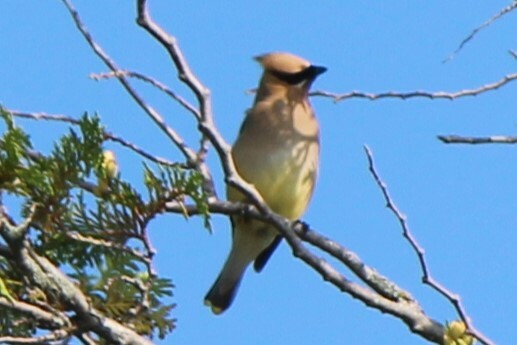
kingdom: Animalia
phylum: Chordata
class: Aves
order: Passeriformes
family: Bombycillidae
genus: Bombycilla
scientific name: Bombycilla cedrorum
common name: Cedar waxwing
